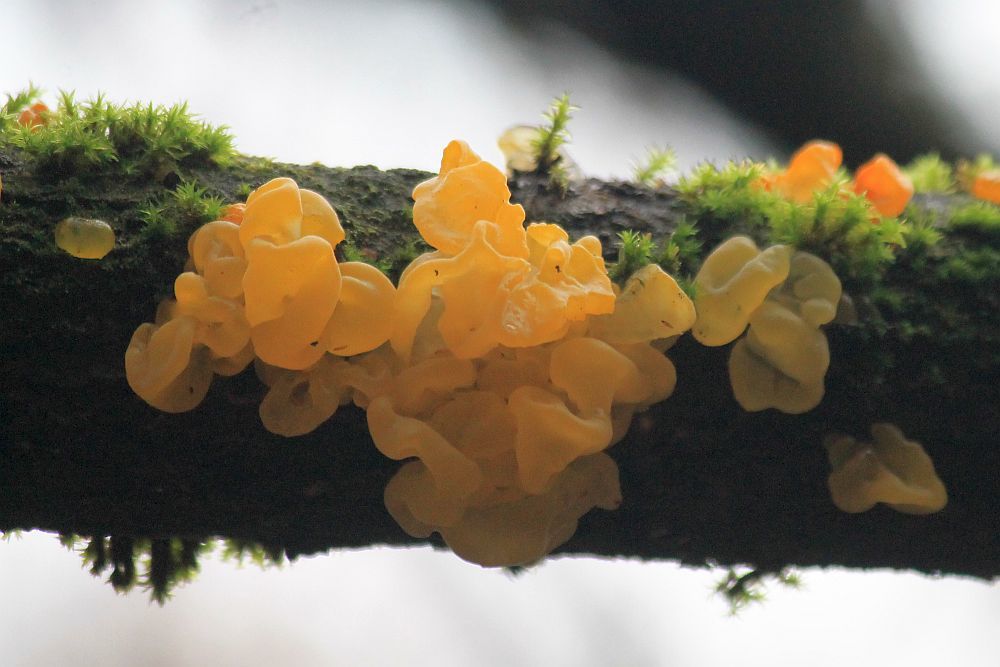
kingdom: Fungi
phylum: Basidiomycota
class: Tremellomycetes
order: Tremellales
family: Tremellaceae
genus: Tremella
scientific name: Tremella mesenterica
